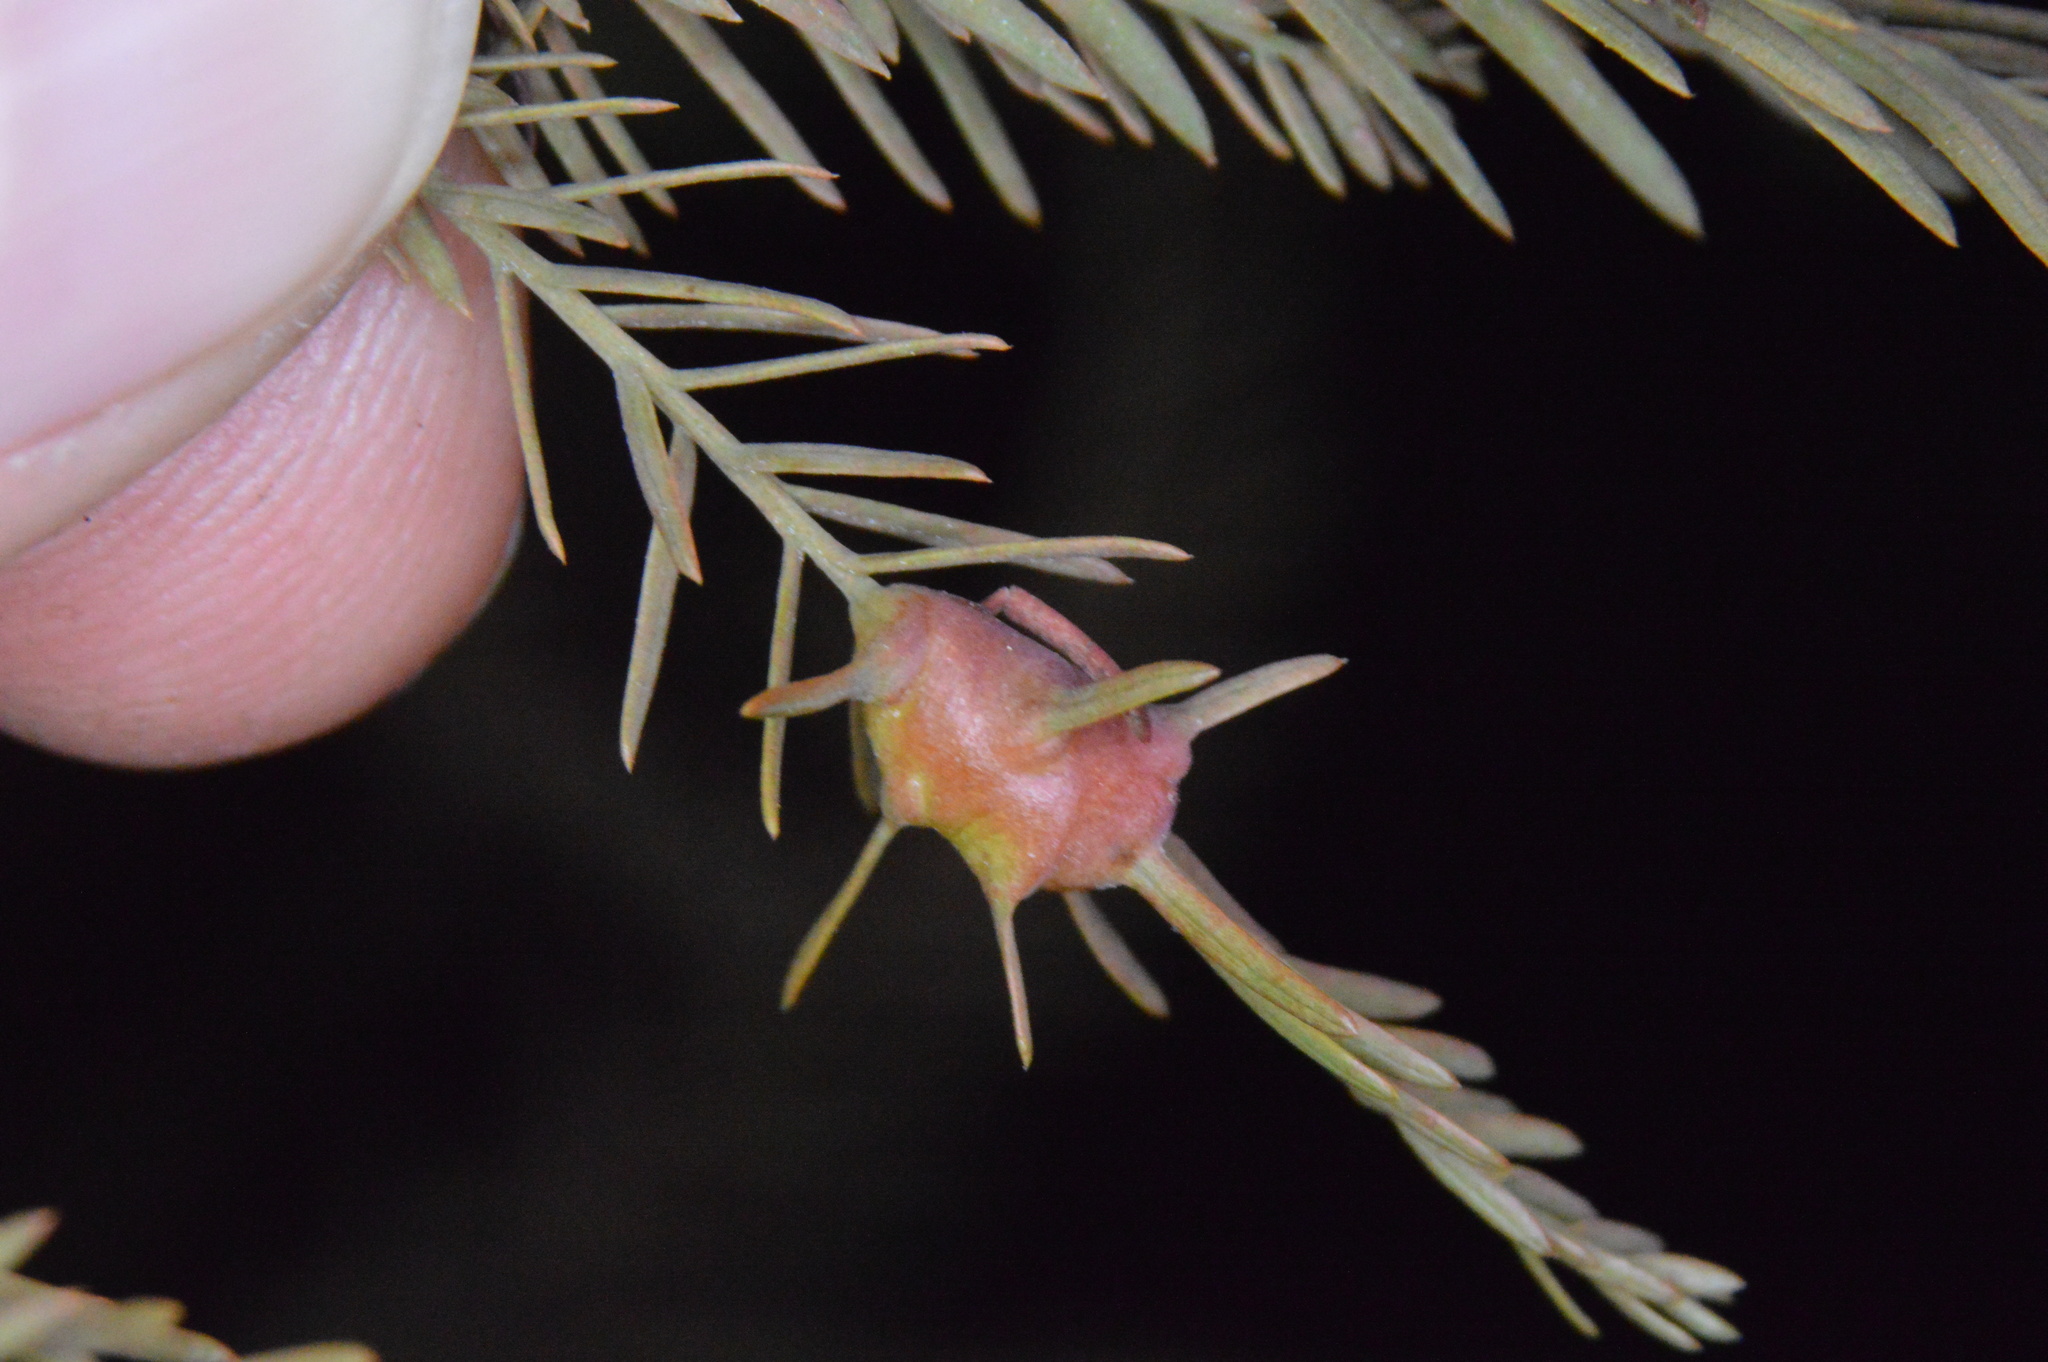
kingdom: Animalia
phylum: Arthropoda
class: Insecta
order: Diptera
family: Cecidomyiidae
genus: Taxodiomyia
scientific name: Taxodiomyia cupressiananassa
